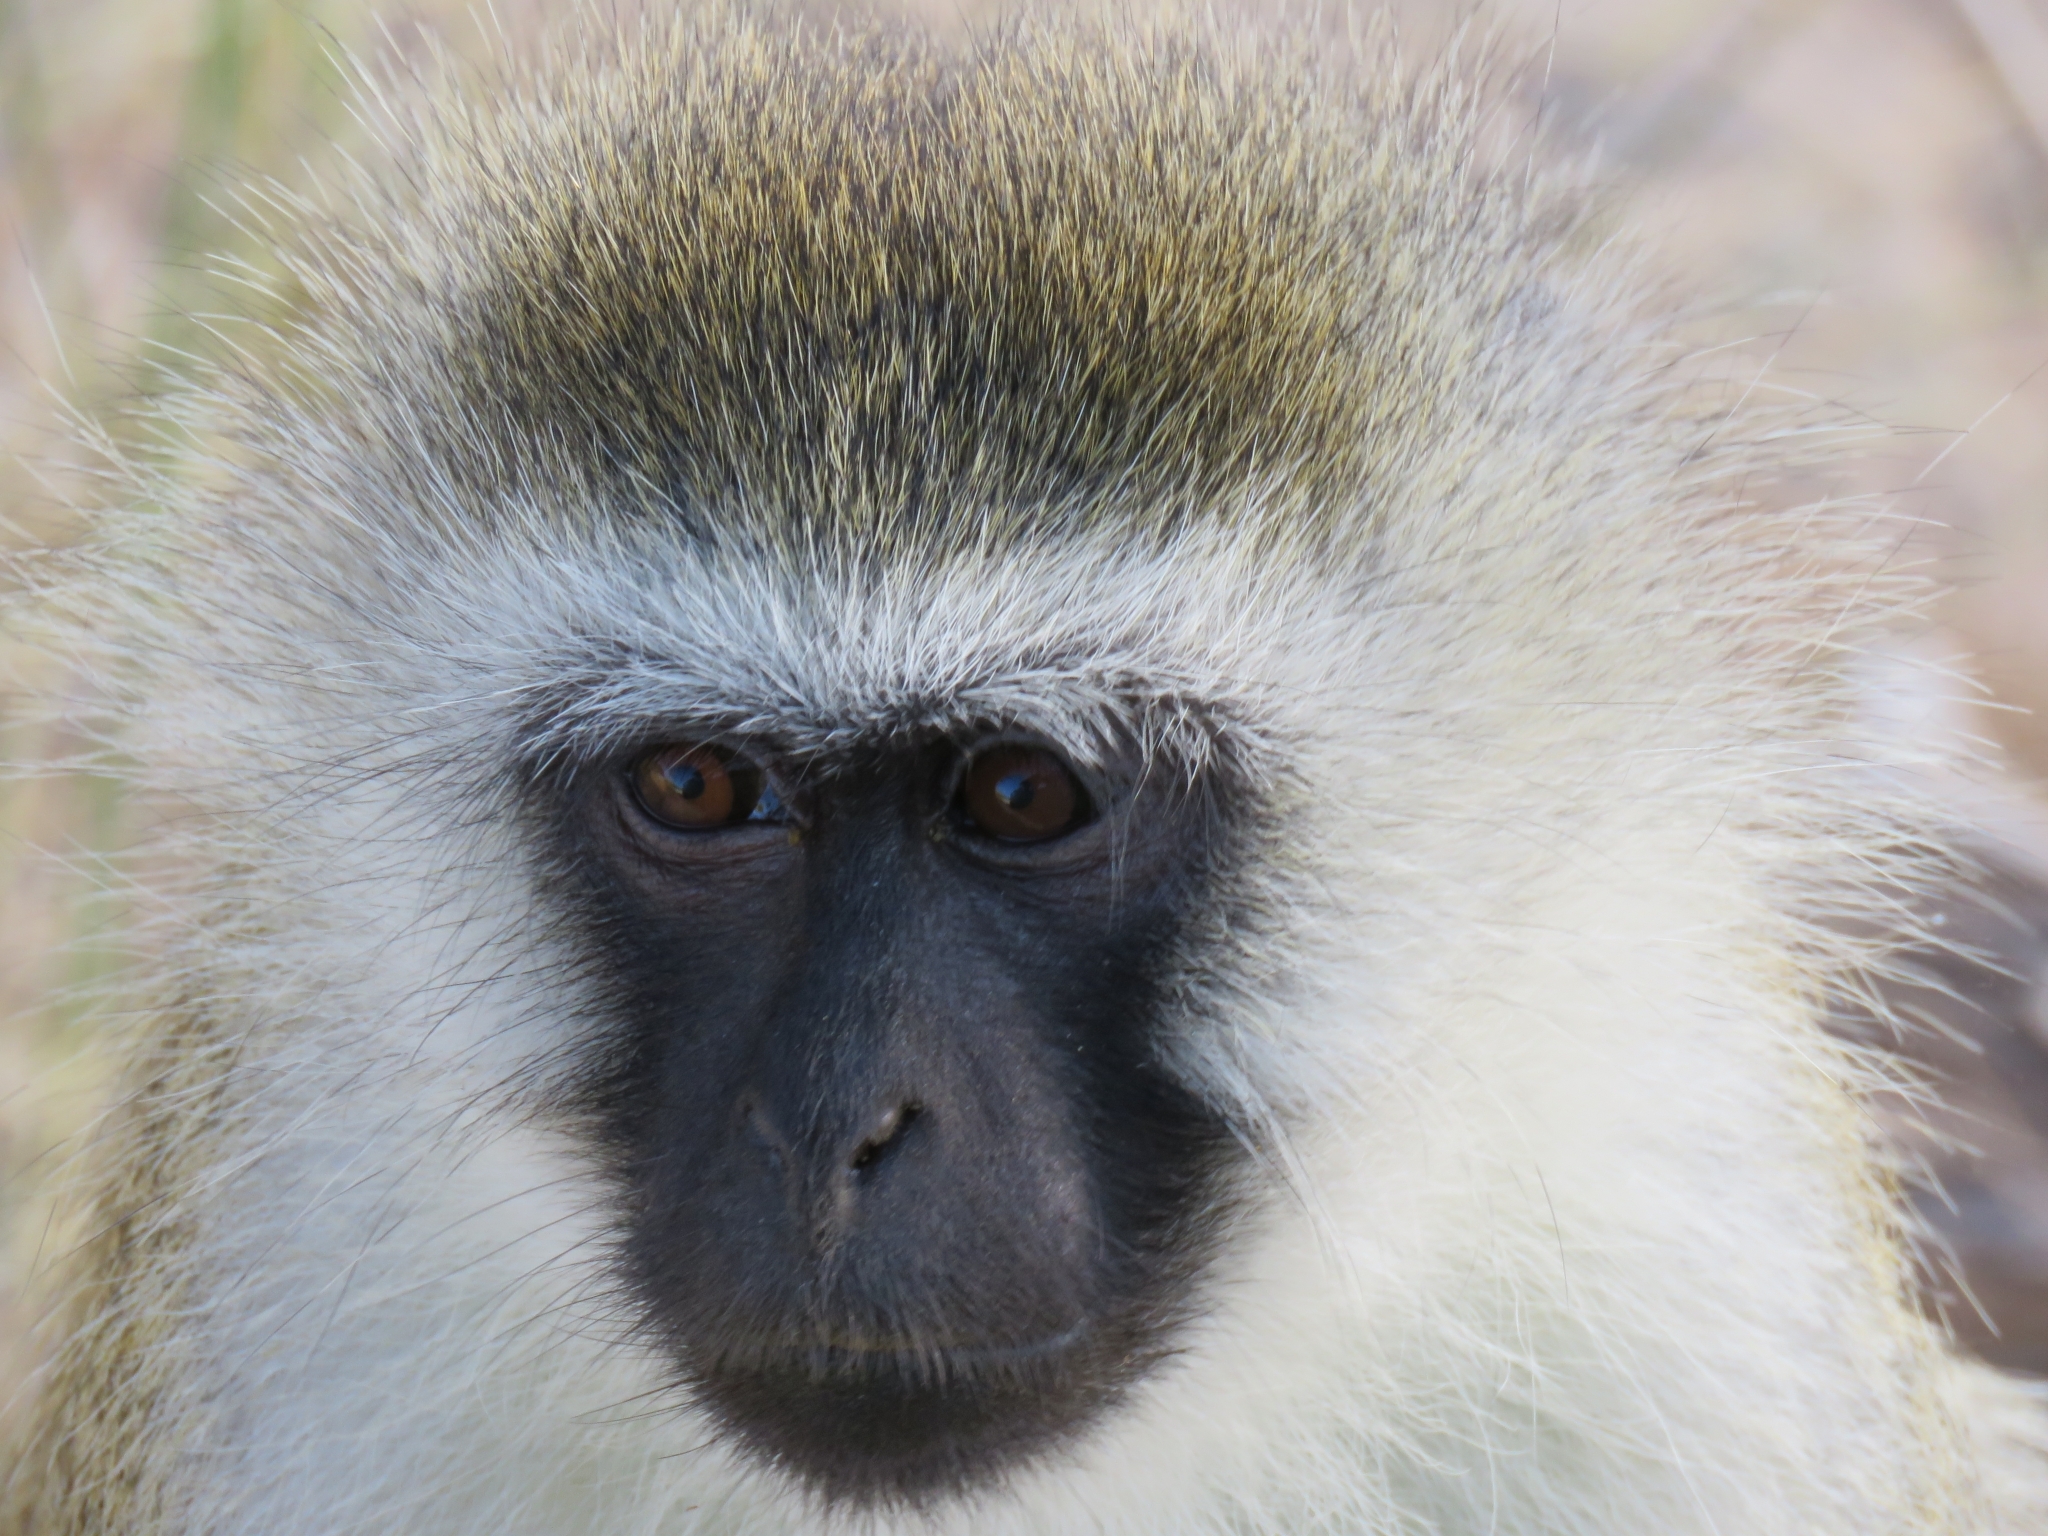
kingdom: Animalia
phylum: Chordata
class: Mammalia
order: Primates
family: Cercopithecidae
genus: Chlorocebus
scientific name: Chlorocebus pygerythrus
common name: Vervet monkey
